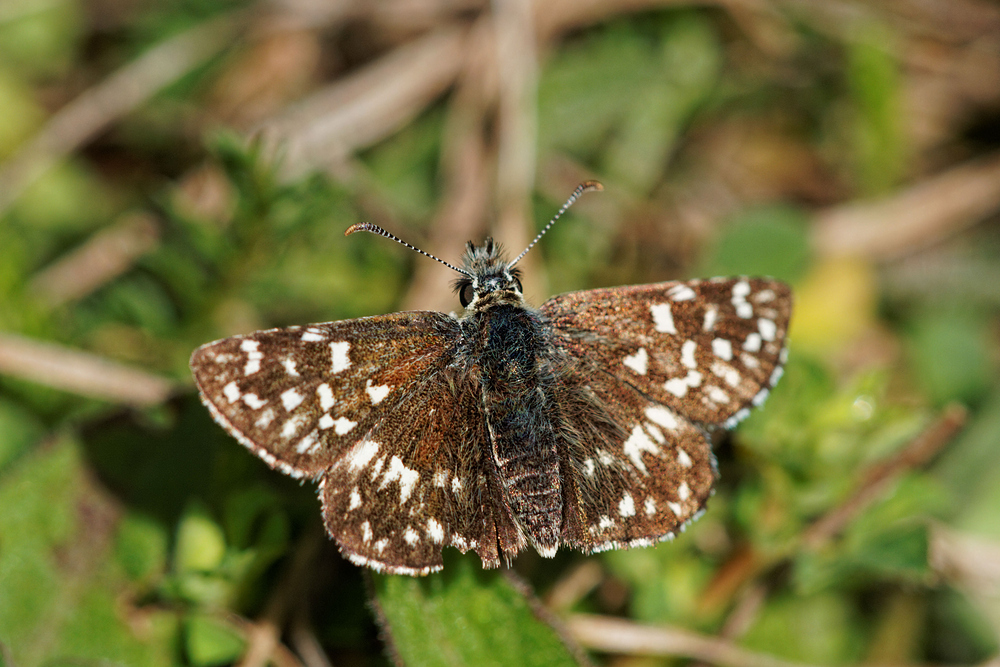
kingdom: Animalia
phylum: Arthropoda
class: Insecta
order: Lepidoptera
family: Hesperiidae
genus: Pyrgus
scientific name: Pyrgus malvae
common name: Grizzled skipper
